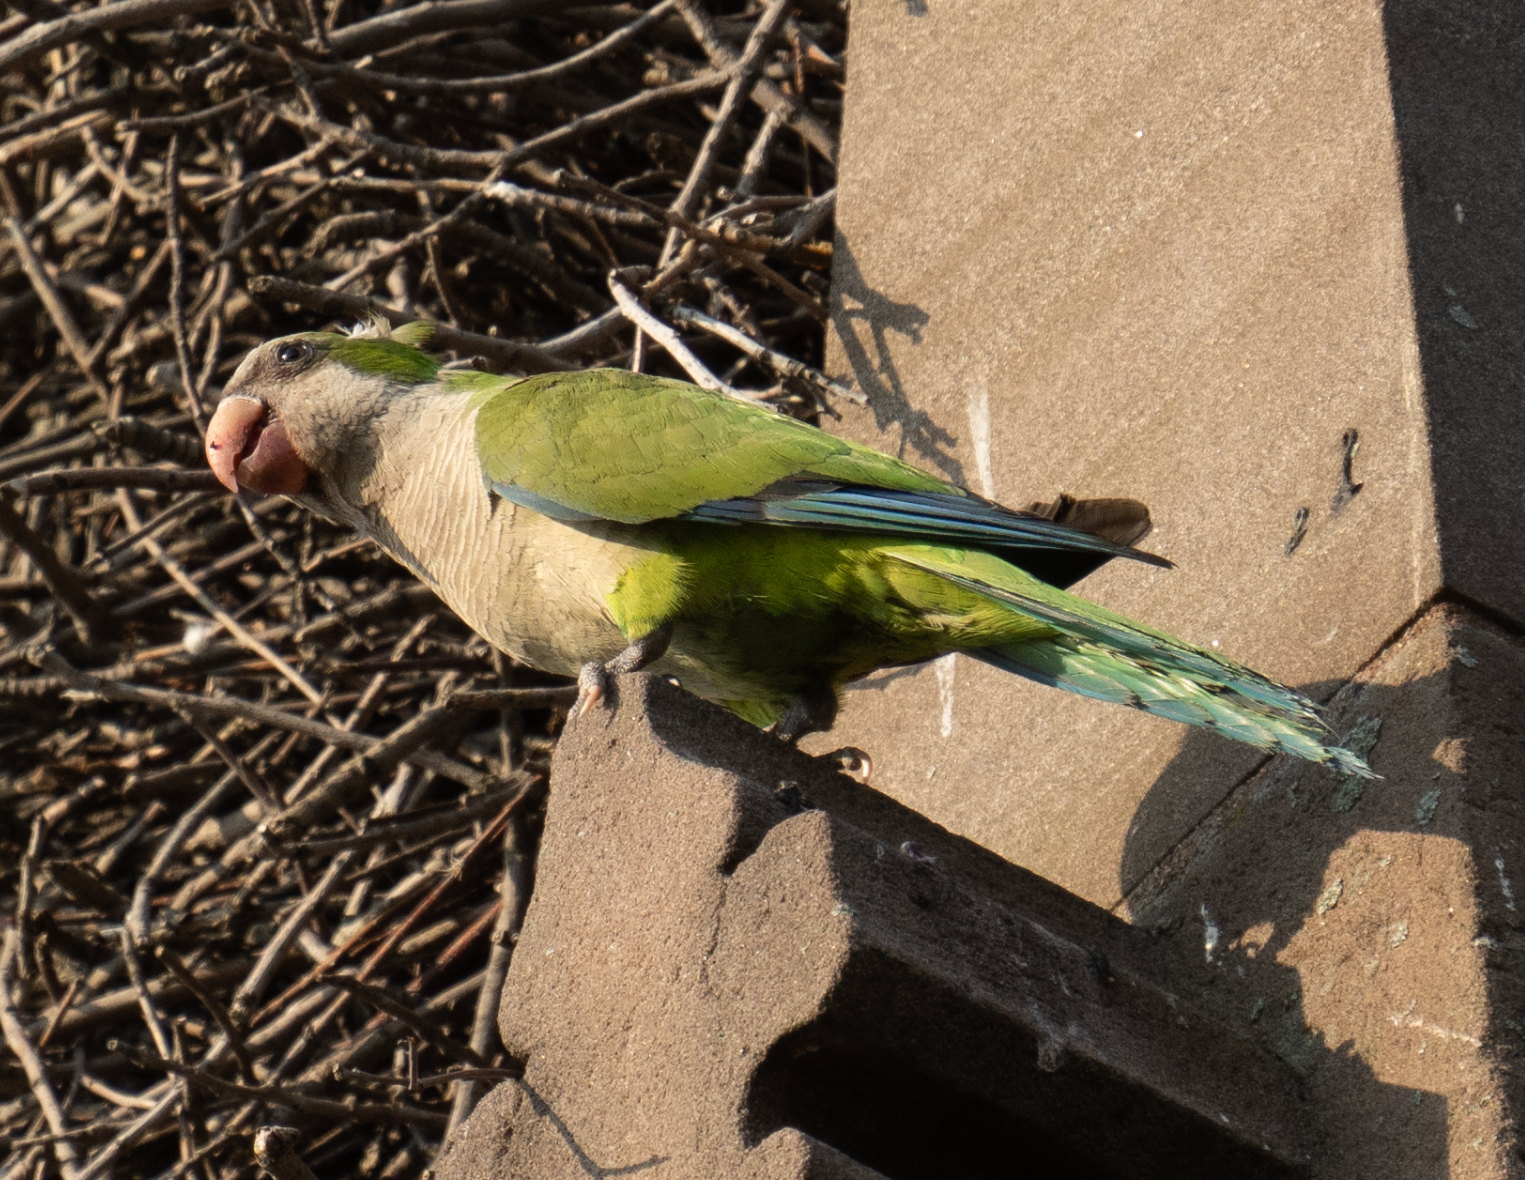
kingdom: Animalia
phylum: Chordata
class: Aves
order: Psittaciformes
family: Psittacidae
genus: Myiopsitta
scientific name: Myiopsitta monachus
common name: Monk parakeet
